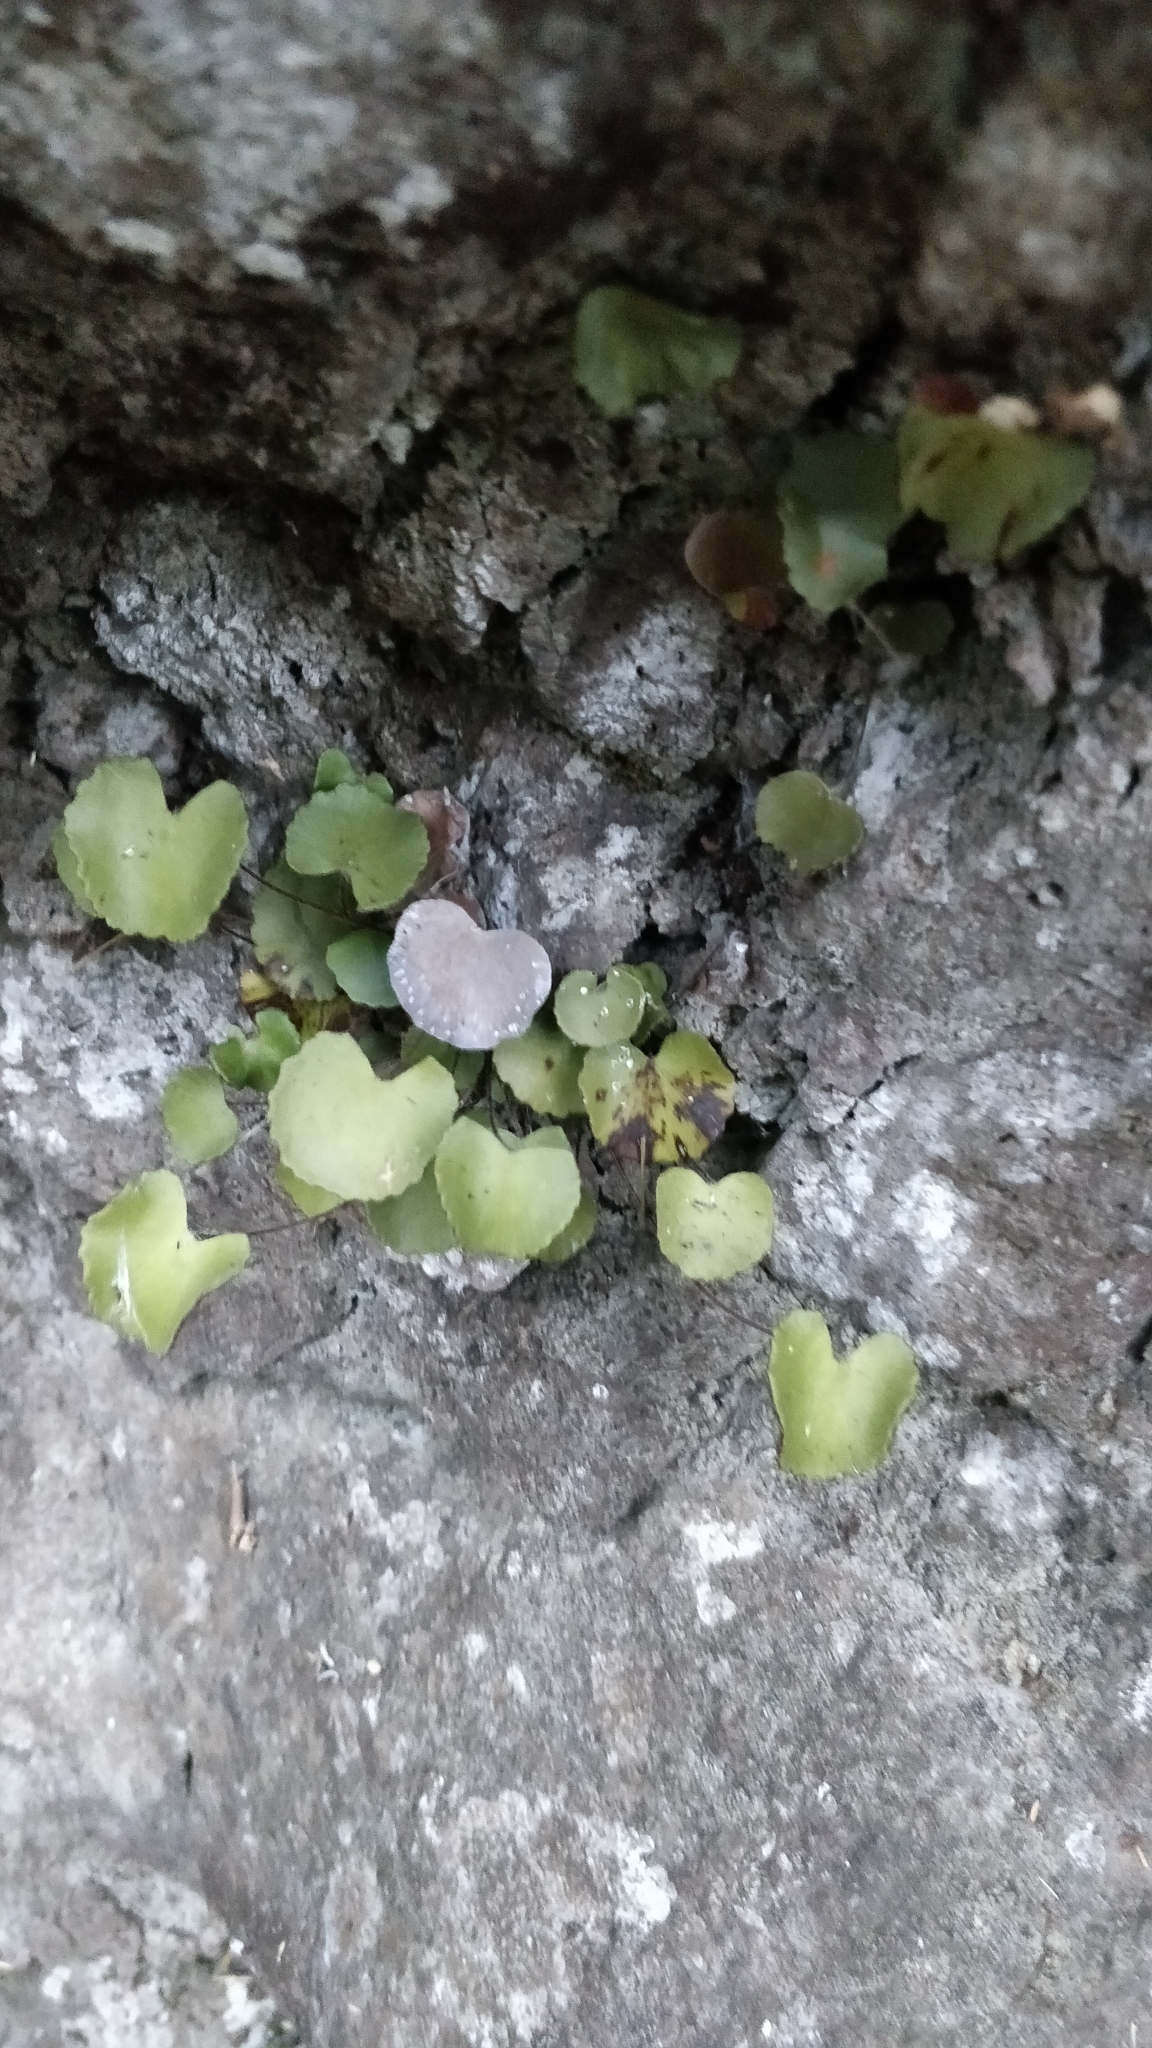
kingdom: Plantae
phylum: Tracheophyta
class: Polypodiopsida
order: Polypodiales
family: Pteridaceae
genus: Adiantum
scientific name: Adiantum reniforme
